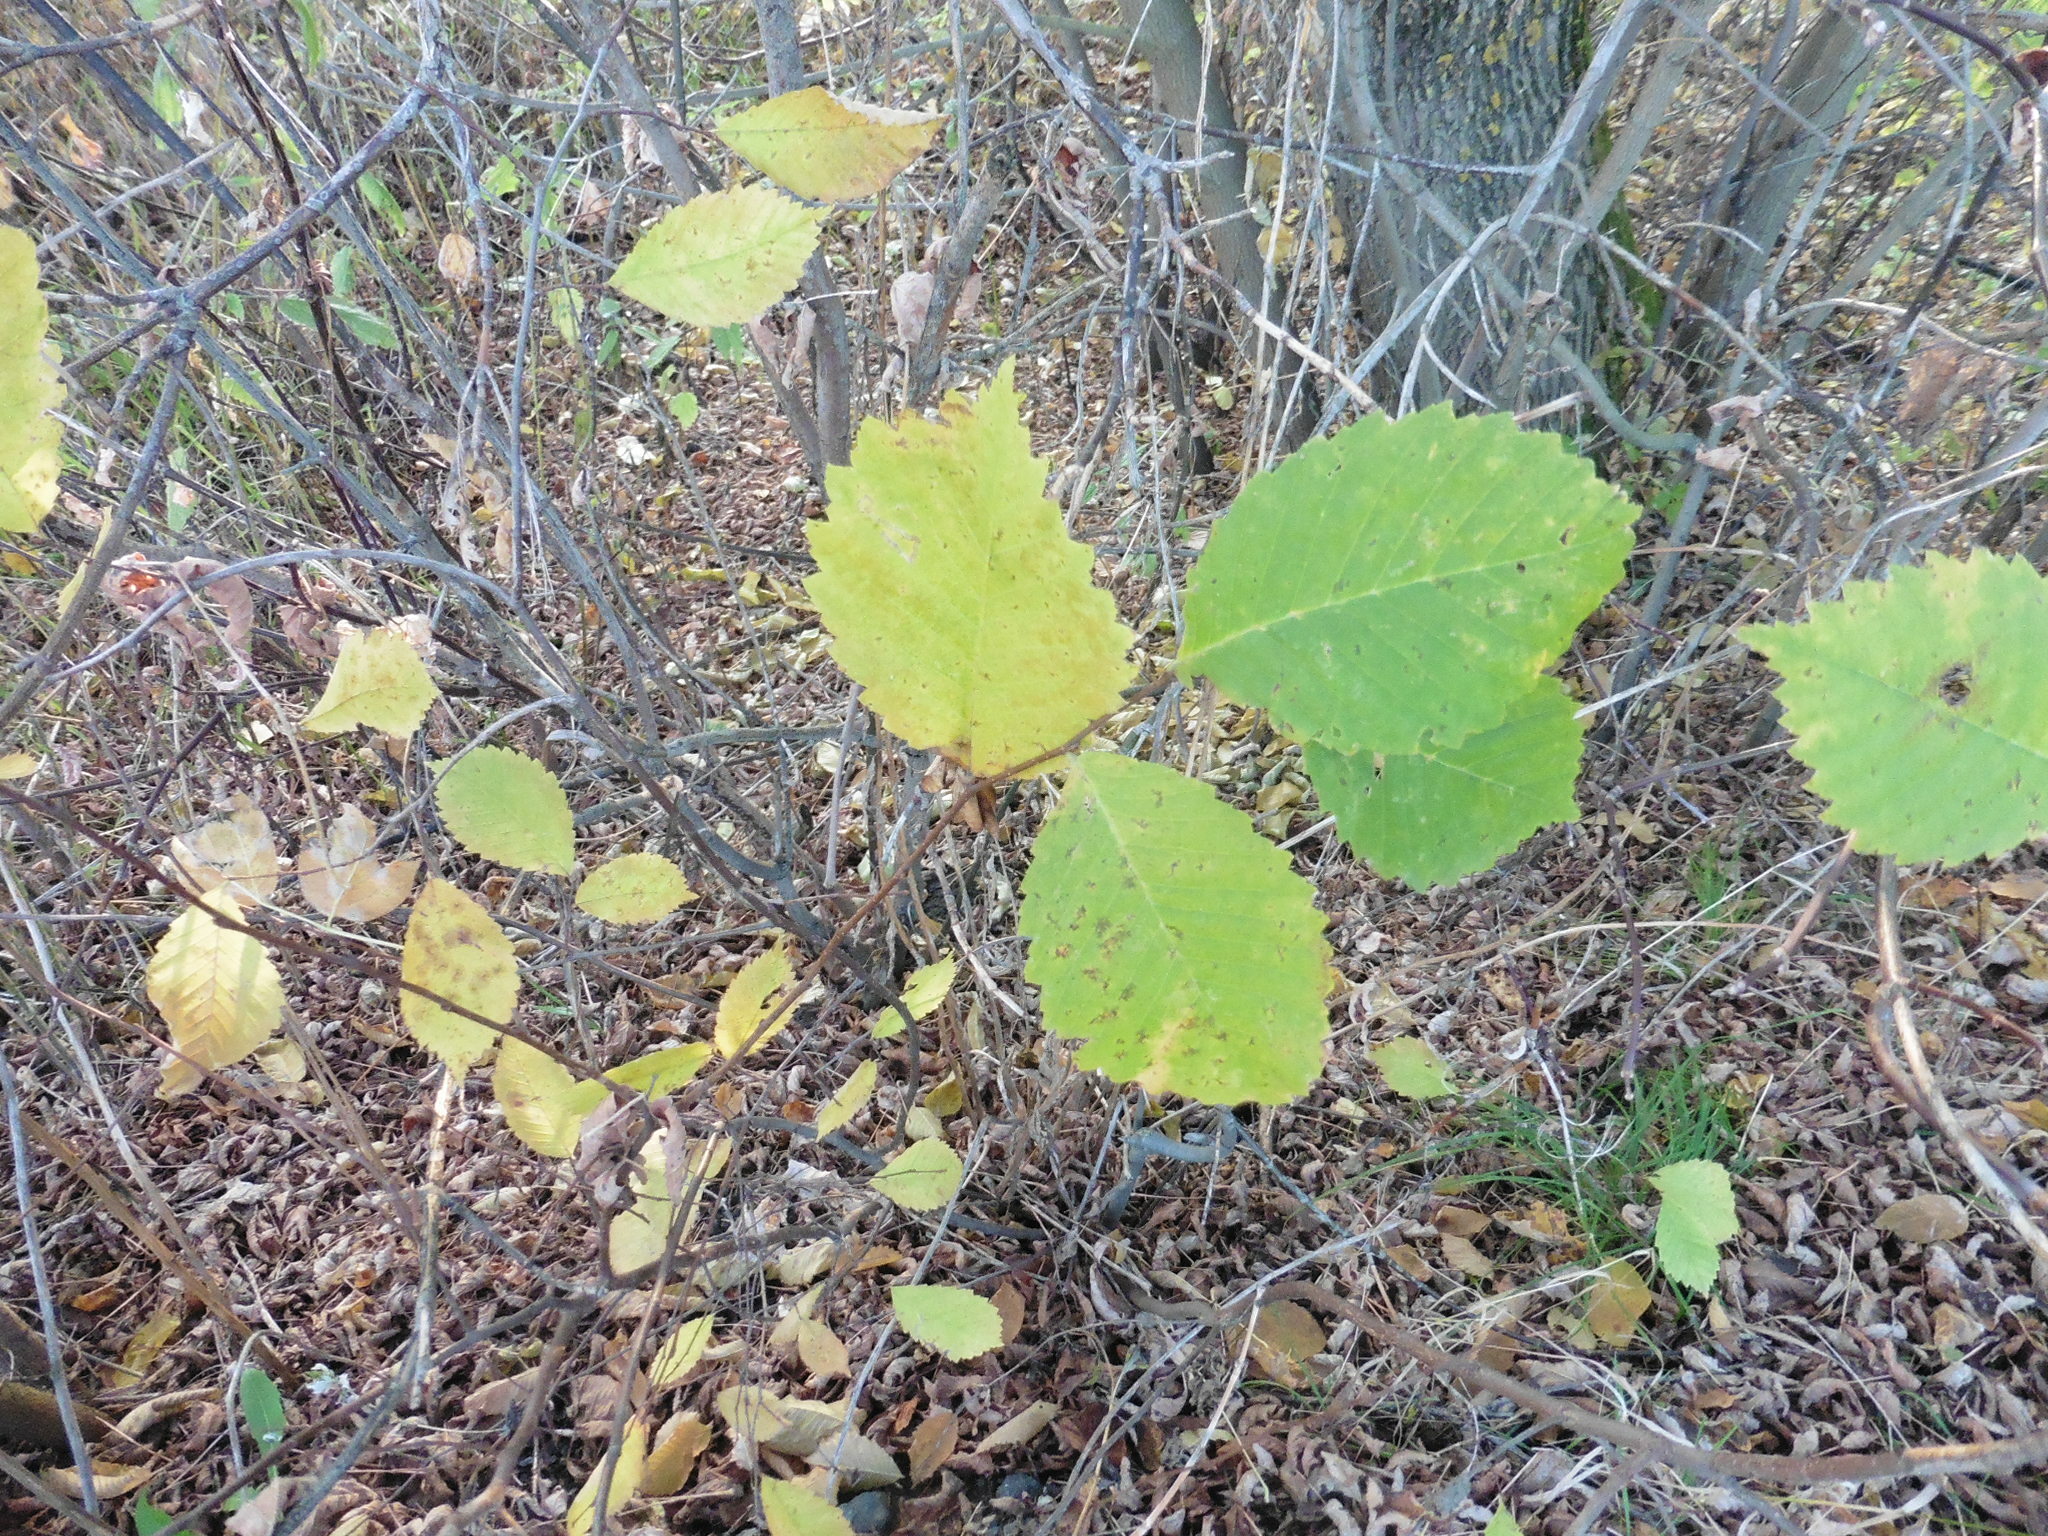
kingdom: Plantae
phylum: Tracheophyta
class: Magnoliopsida
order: Rosales
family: Ulmaceae
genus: Ulmus
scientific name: Ulmus laevis
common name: European white-elm
